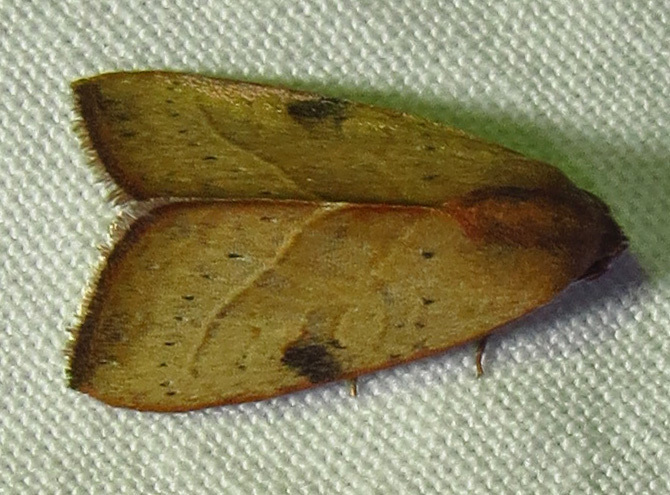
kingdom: Animalia
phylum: Arthropoda
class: Insecta
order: Lepidoptera
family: Noctuidae
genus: Galgula
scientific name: Galgula partita
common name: Wedgeling
